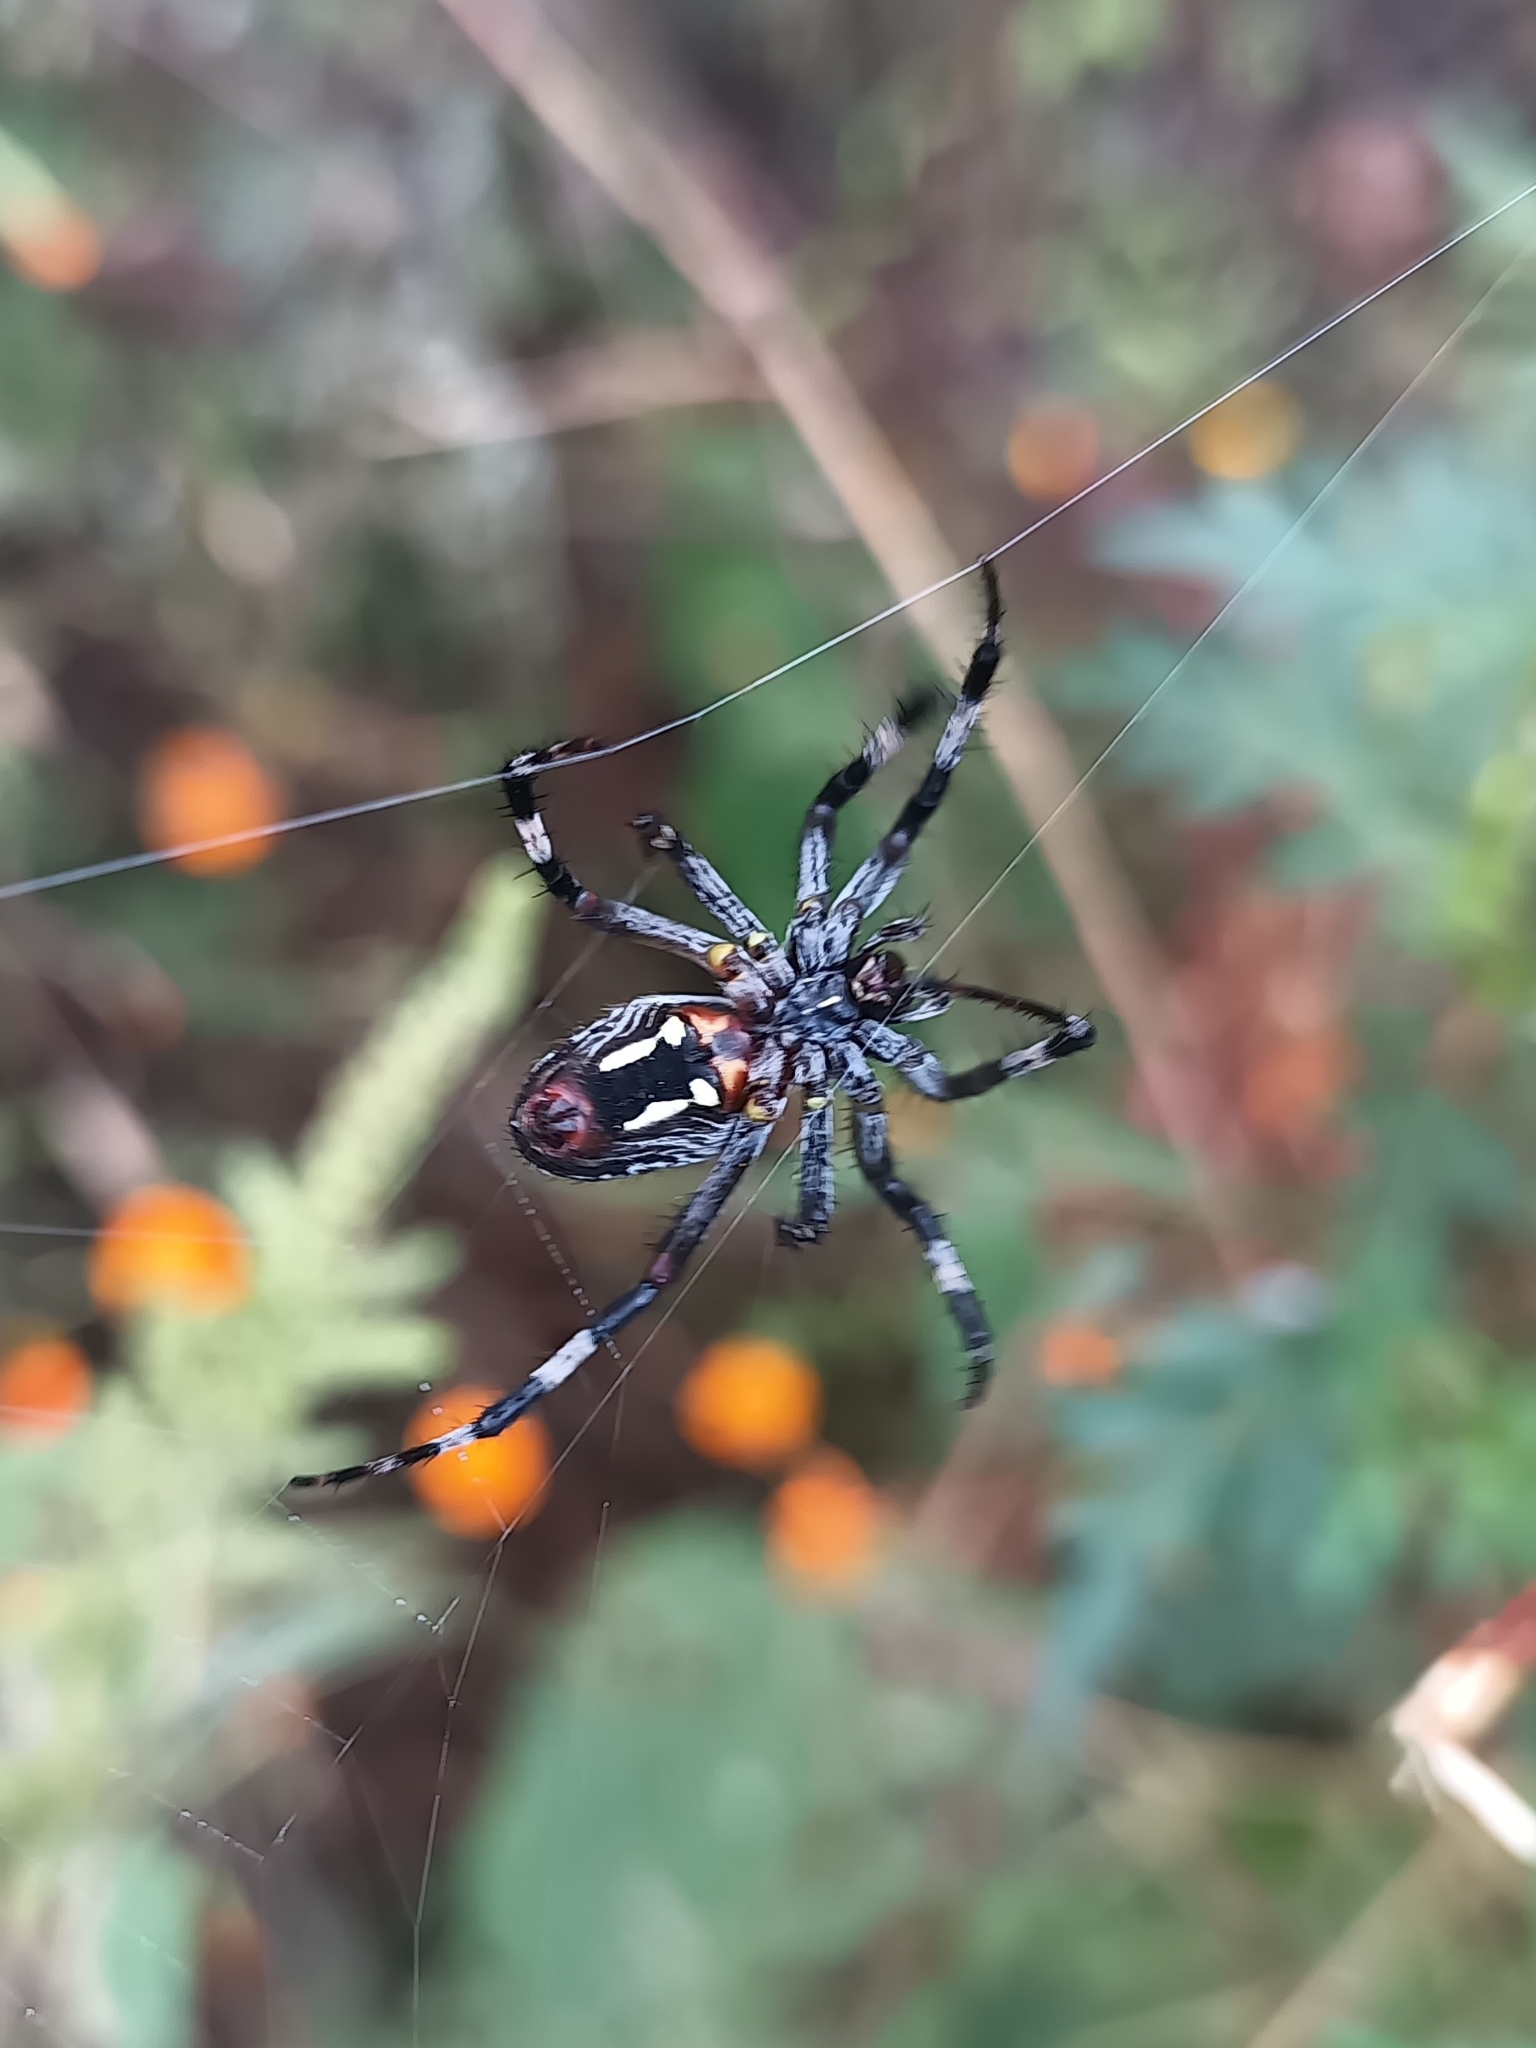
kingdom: Animalia
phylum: Arthropoda
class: Arachnida
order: Araneae
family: Araneidae
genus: Neoscona
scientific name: Neoscona oaxacensis
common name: Orb weavers
